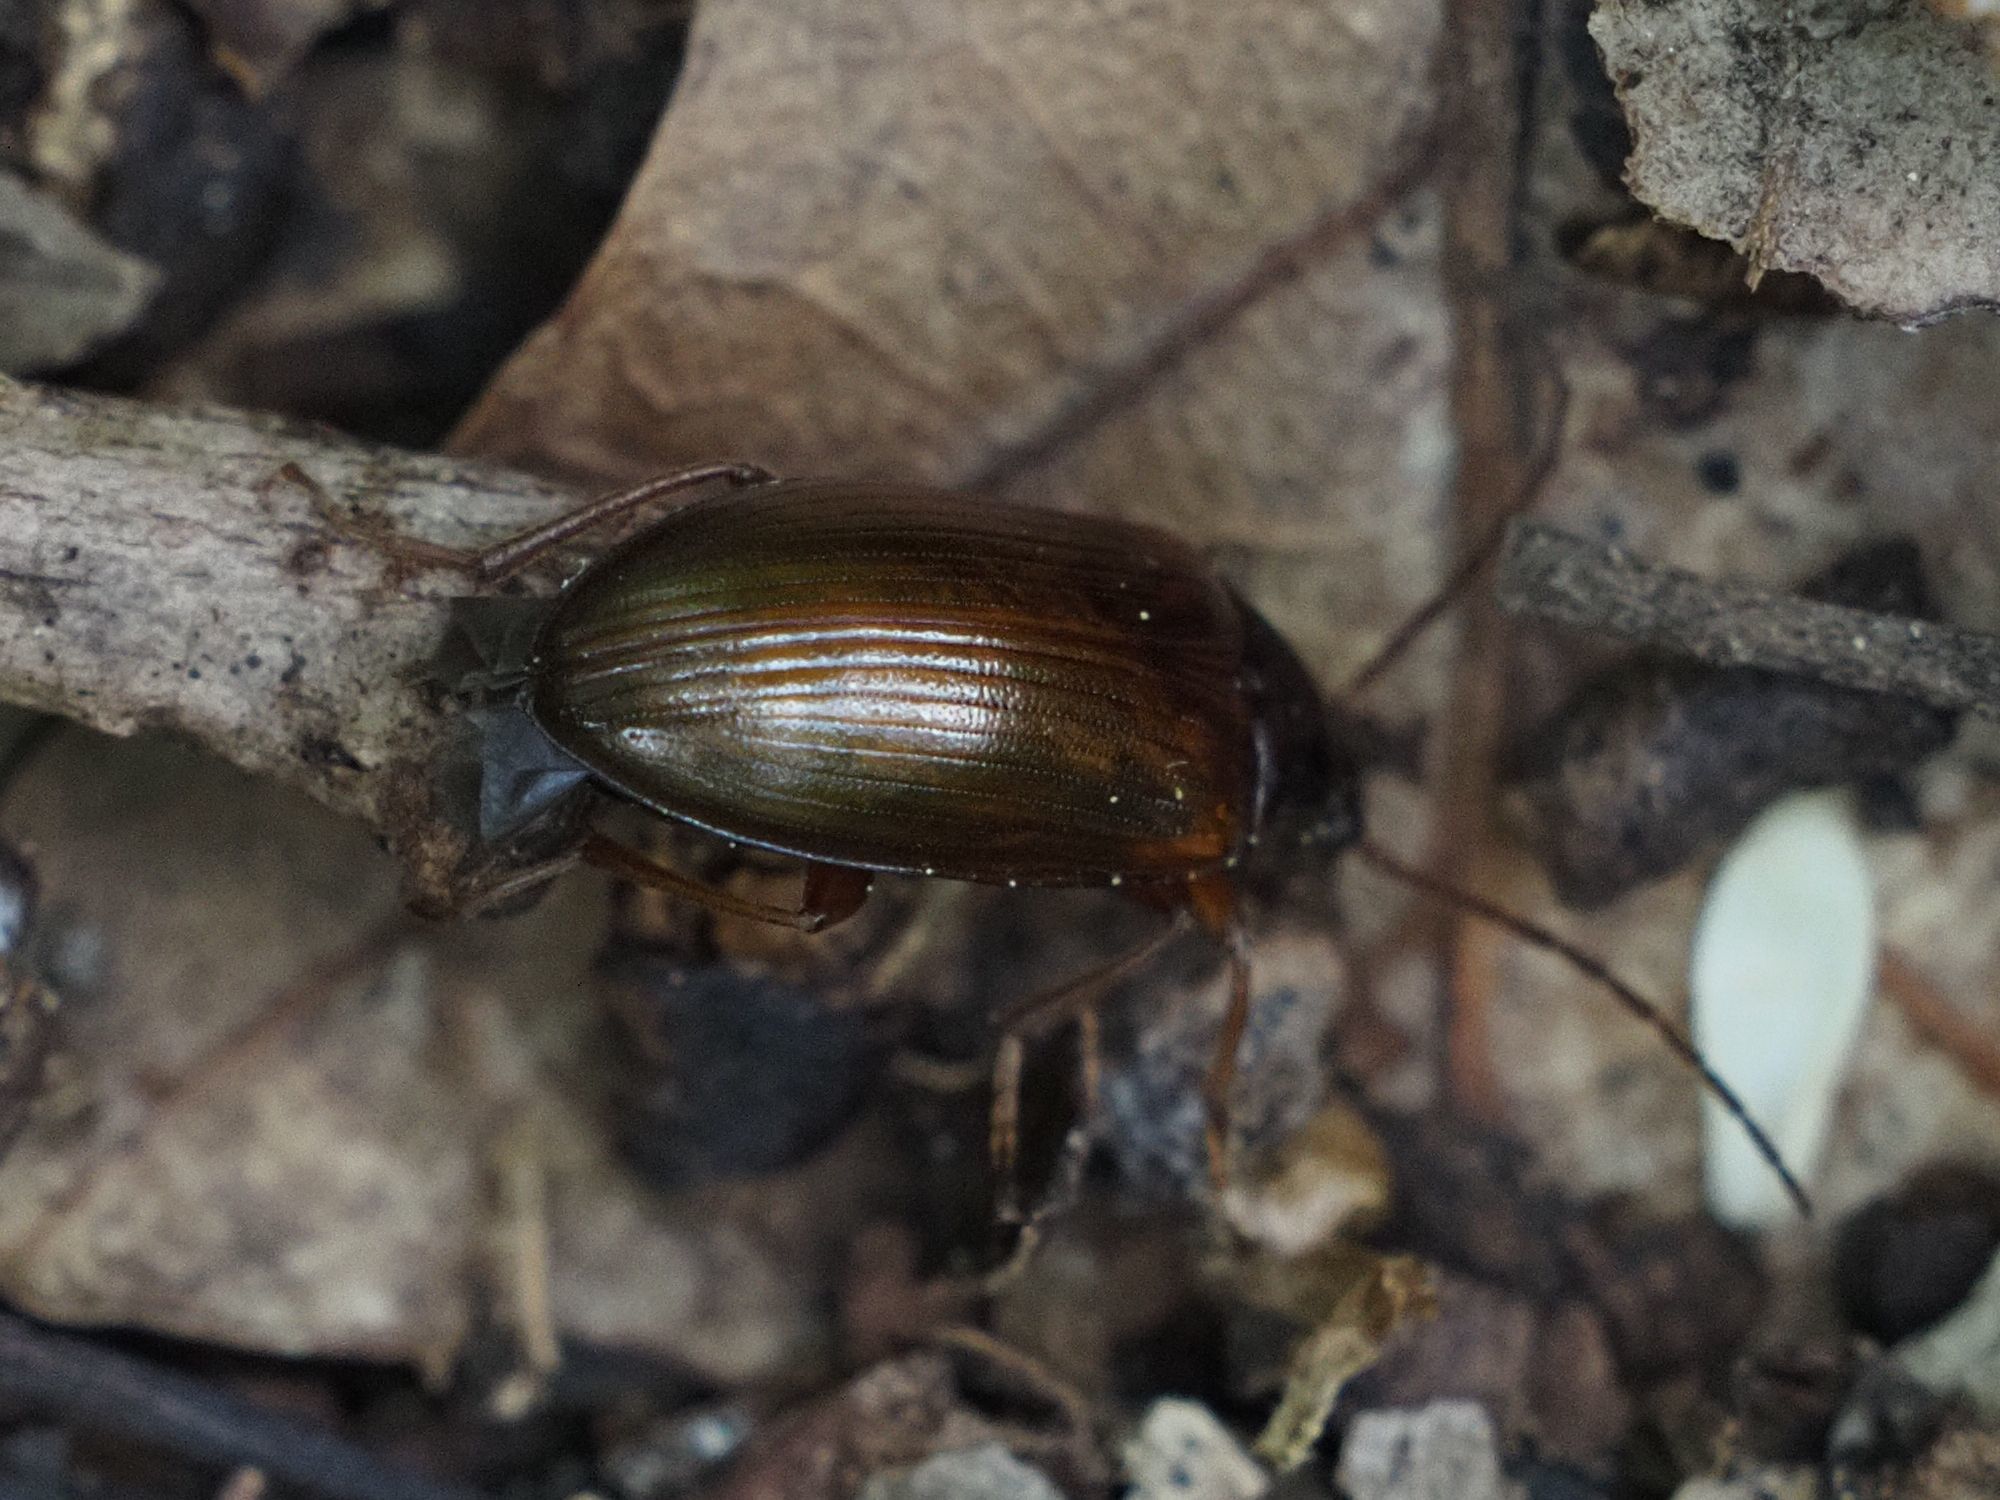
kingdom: Animalia
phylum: Arthropoda
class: Insecta
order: Coleoptera
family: Tenebrionidae
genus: Gonodera
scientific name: Gonodera luperus
